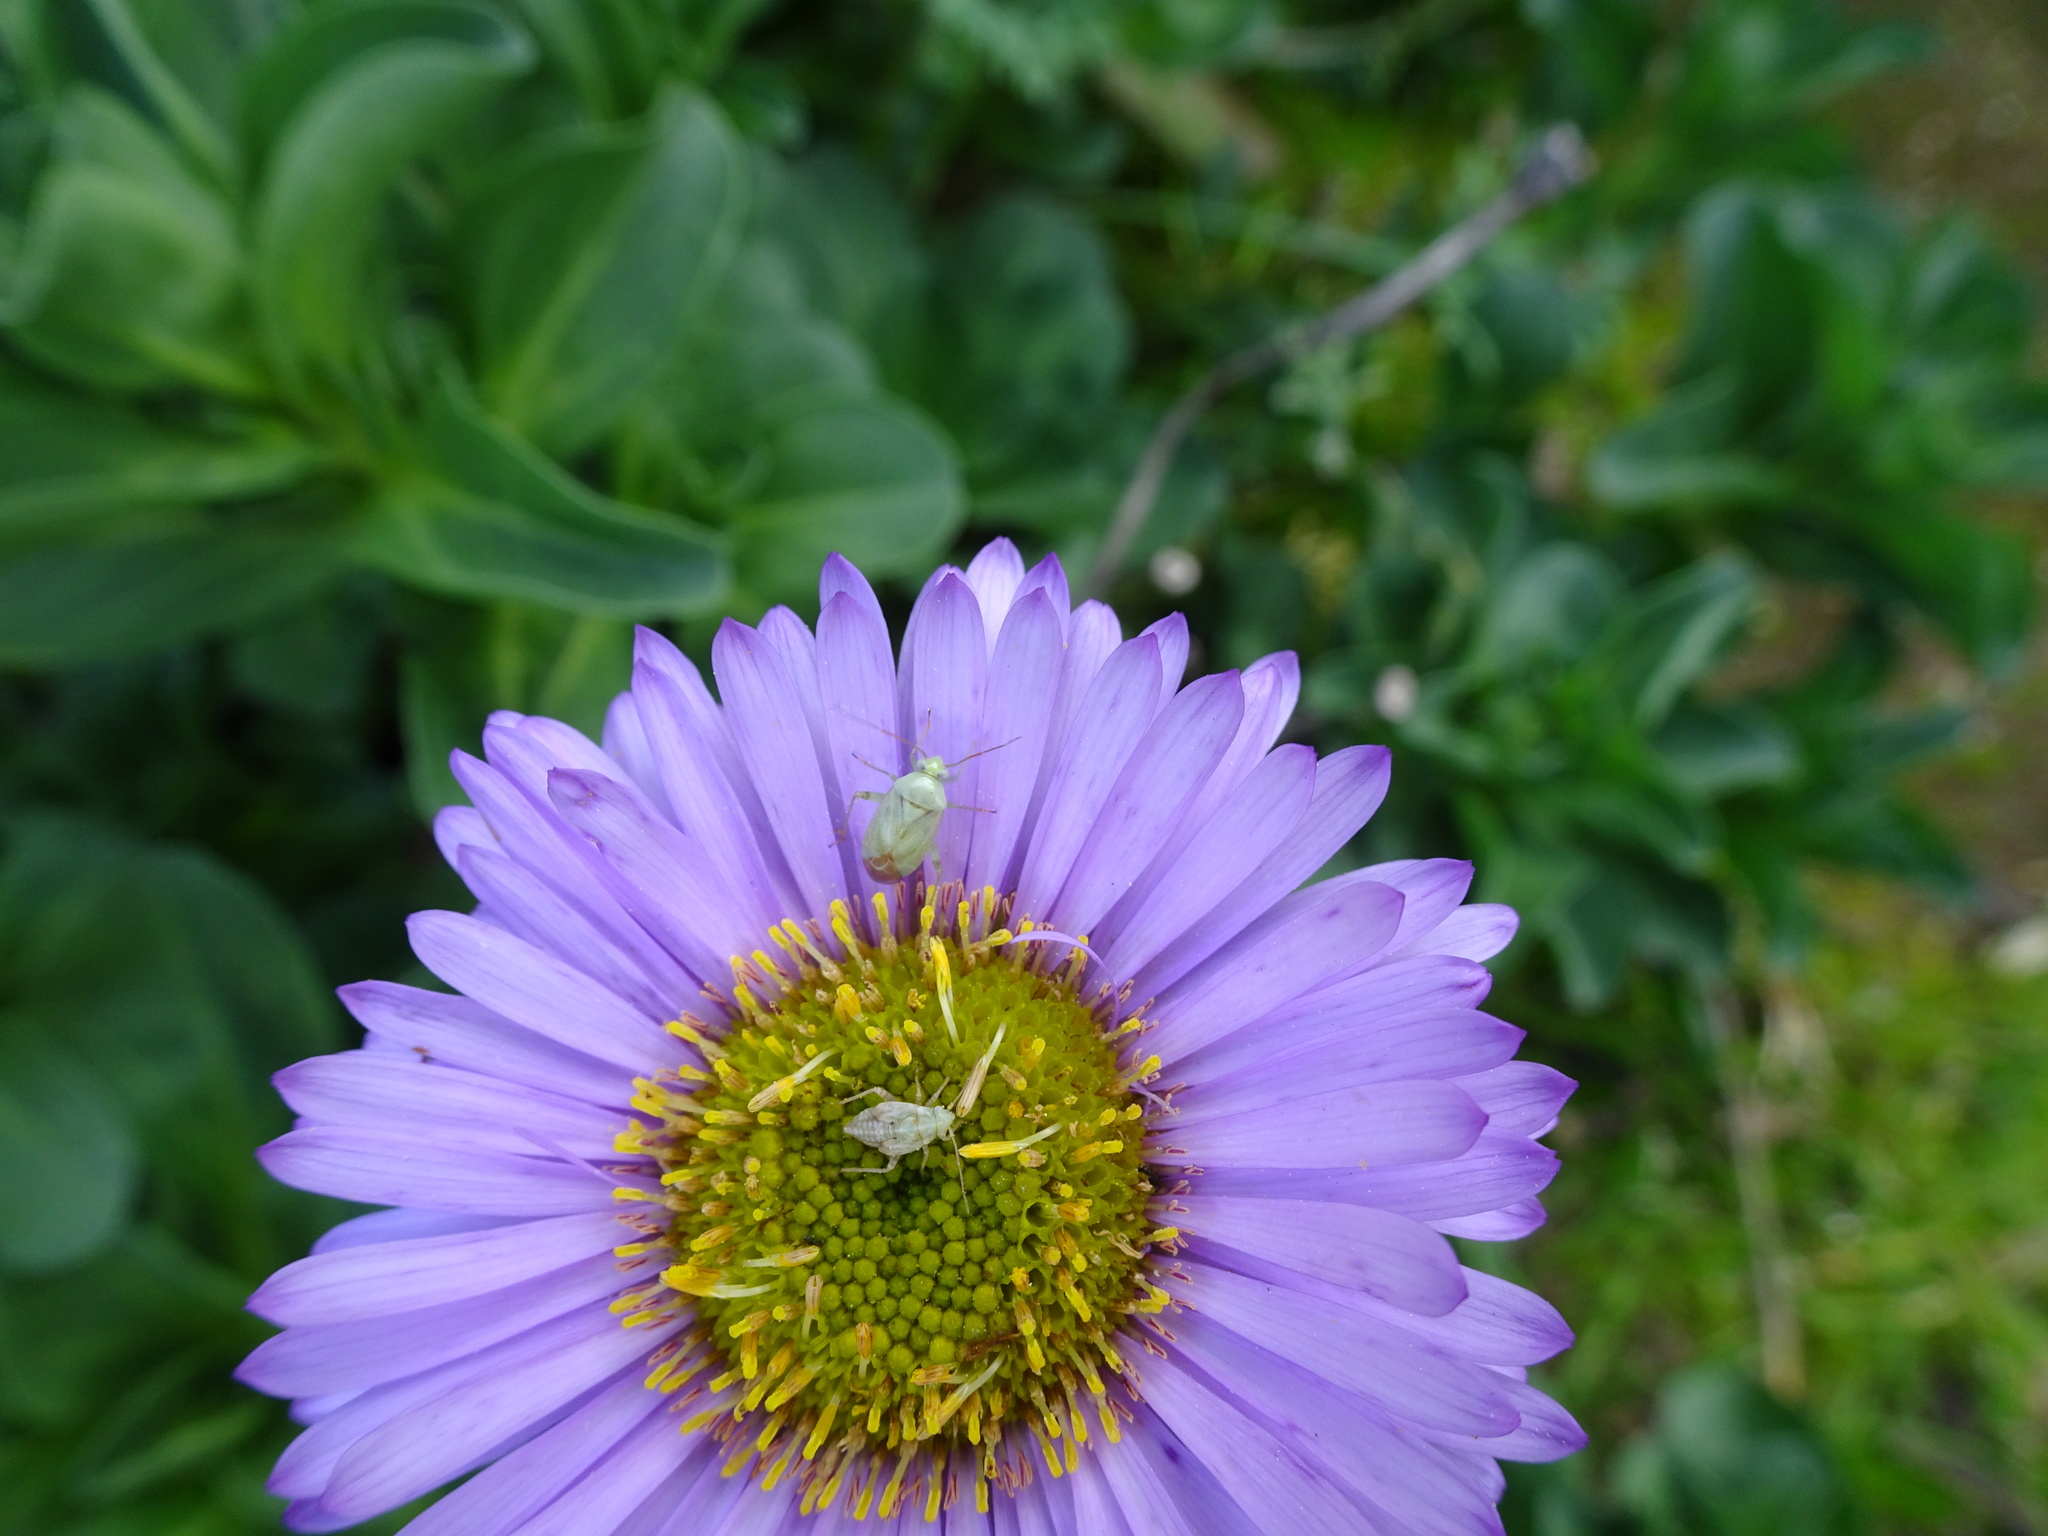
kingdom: Animalia
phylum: Arthropoda
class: Insecta
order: Hemiptera
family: Miridae
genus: Taylorilygus
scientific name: Taylorilygus apicalis
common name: Plant bug
